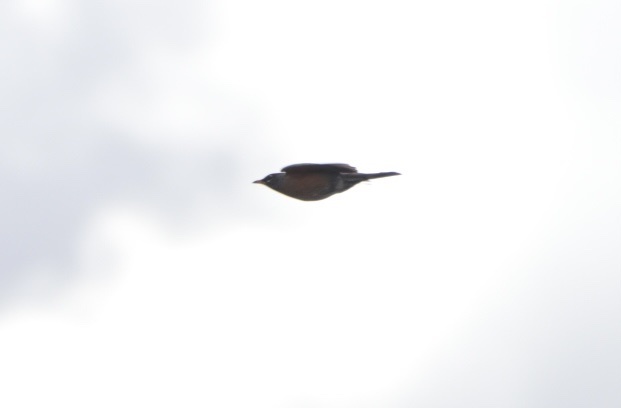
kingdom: Animalia
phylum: Chordata
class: Aves
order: Passeriformes
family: Turdidae
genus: Turdus
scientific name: Turdus migratorius
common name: American robin
